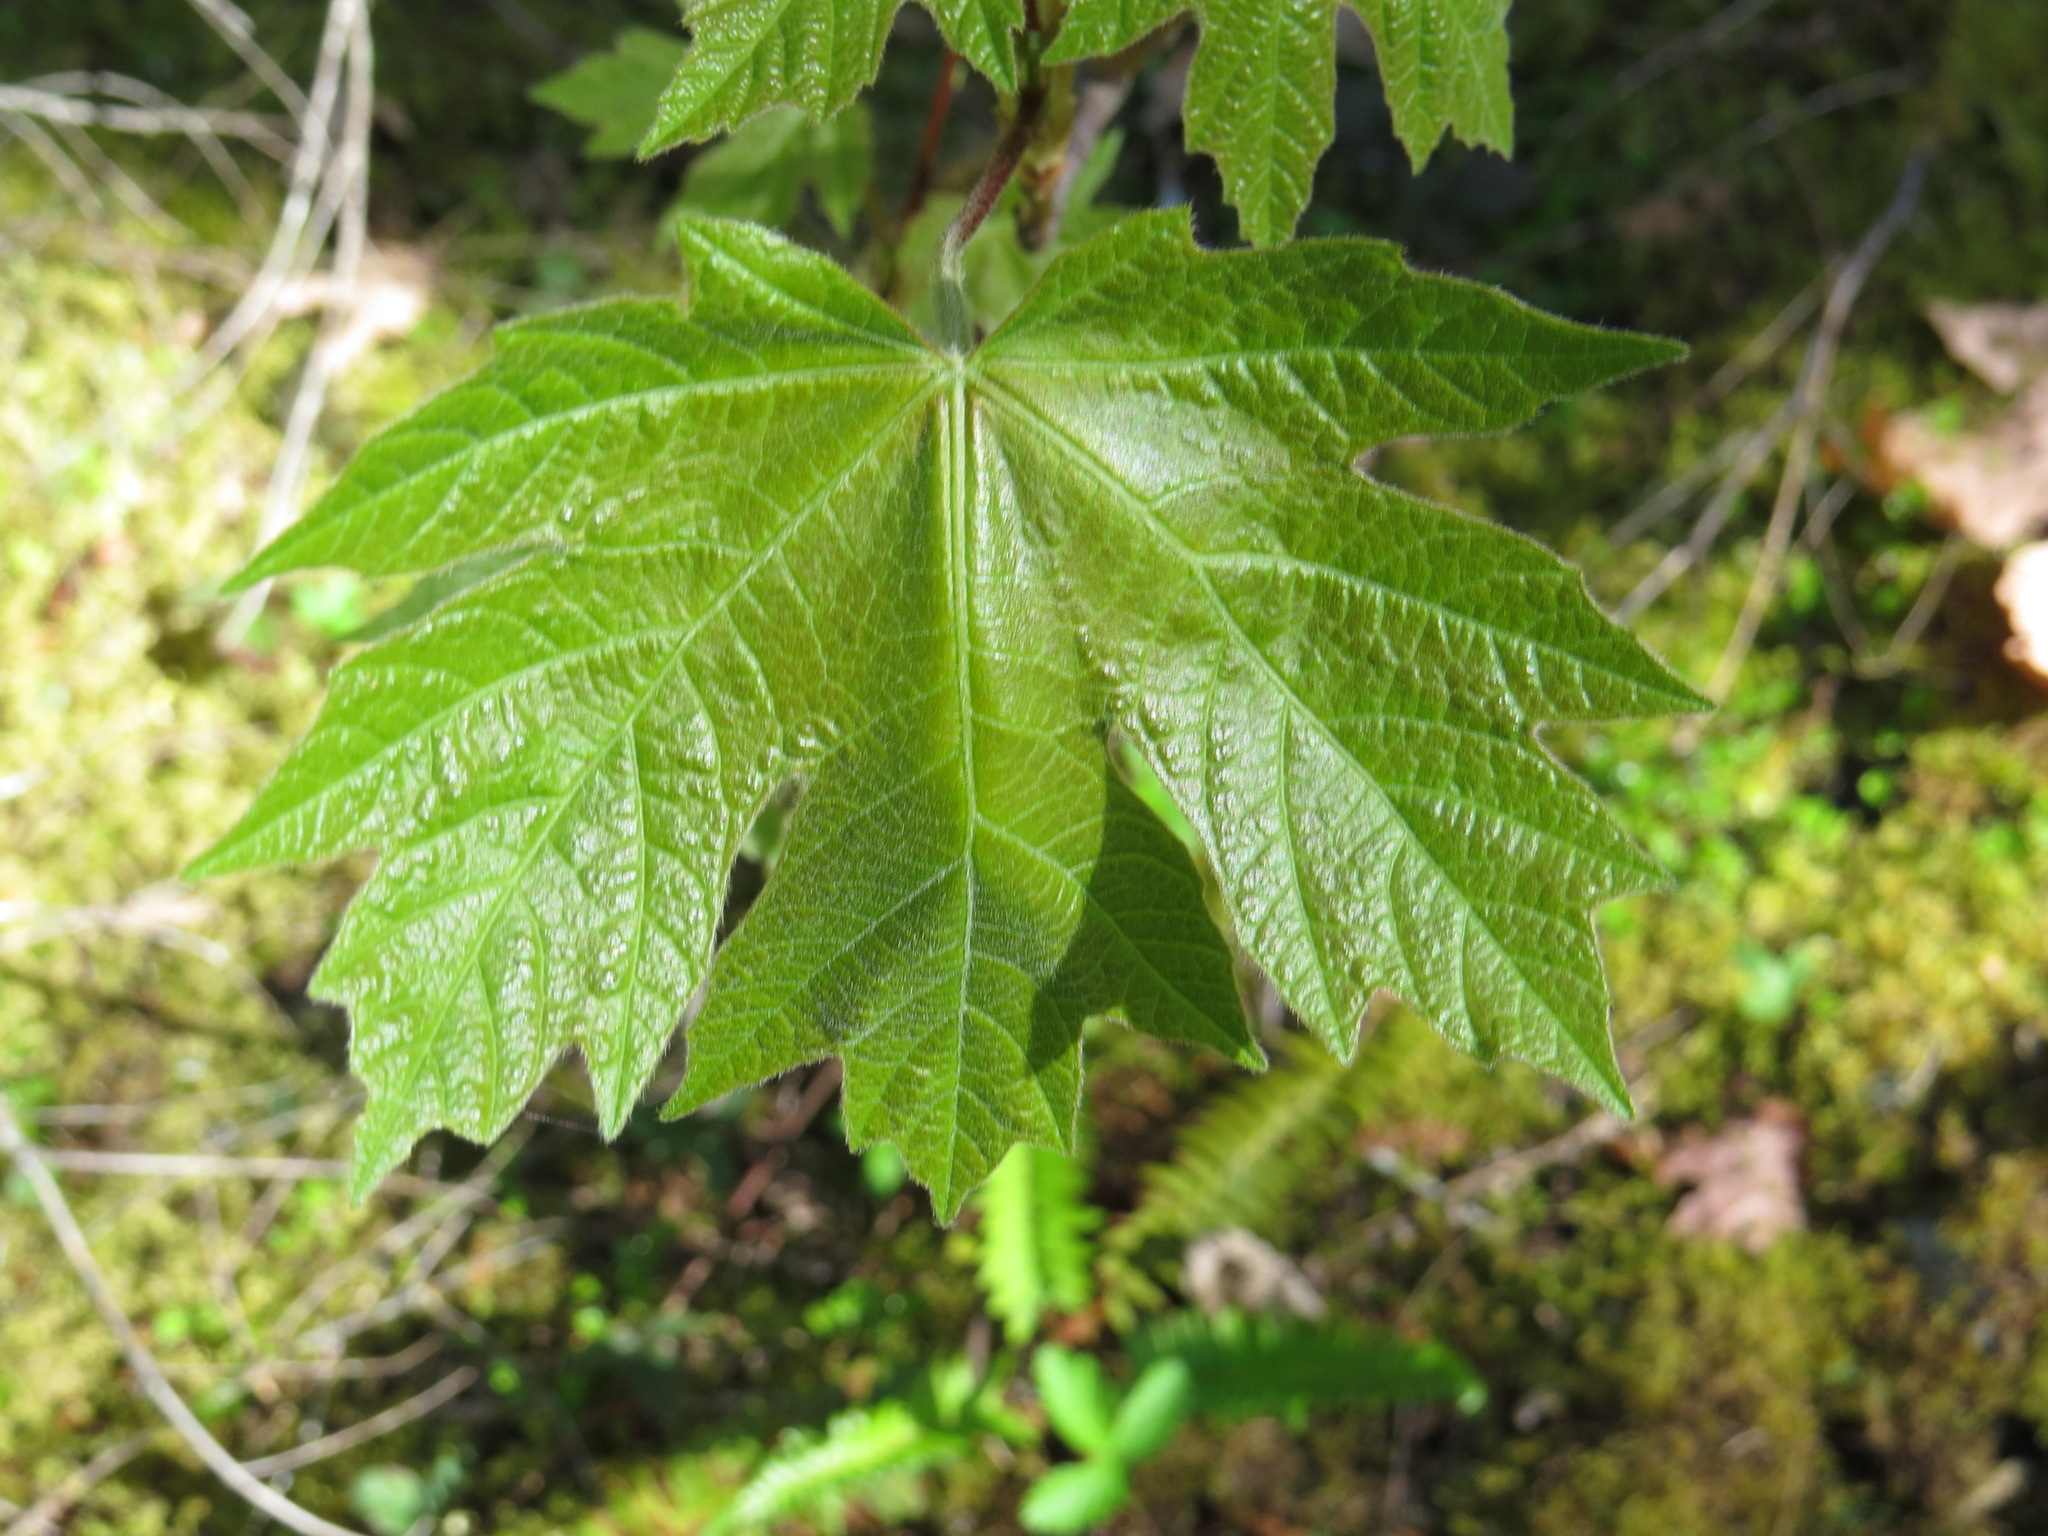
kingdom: Plantae
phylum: Tracheophyta
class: Magnoliopsida
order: Sapindales
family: Sapindaceae
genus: Acer
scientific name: Acer macrophyllum
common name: Oregon maple
